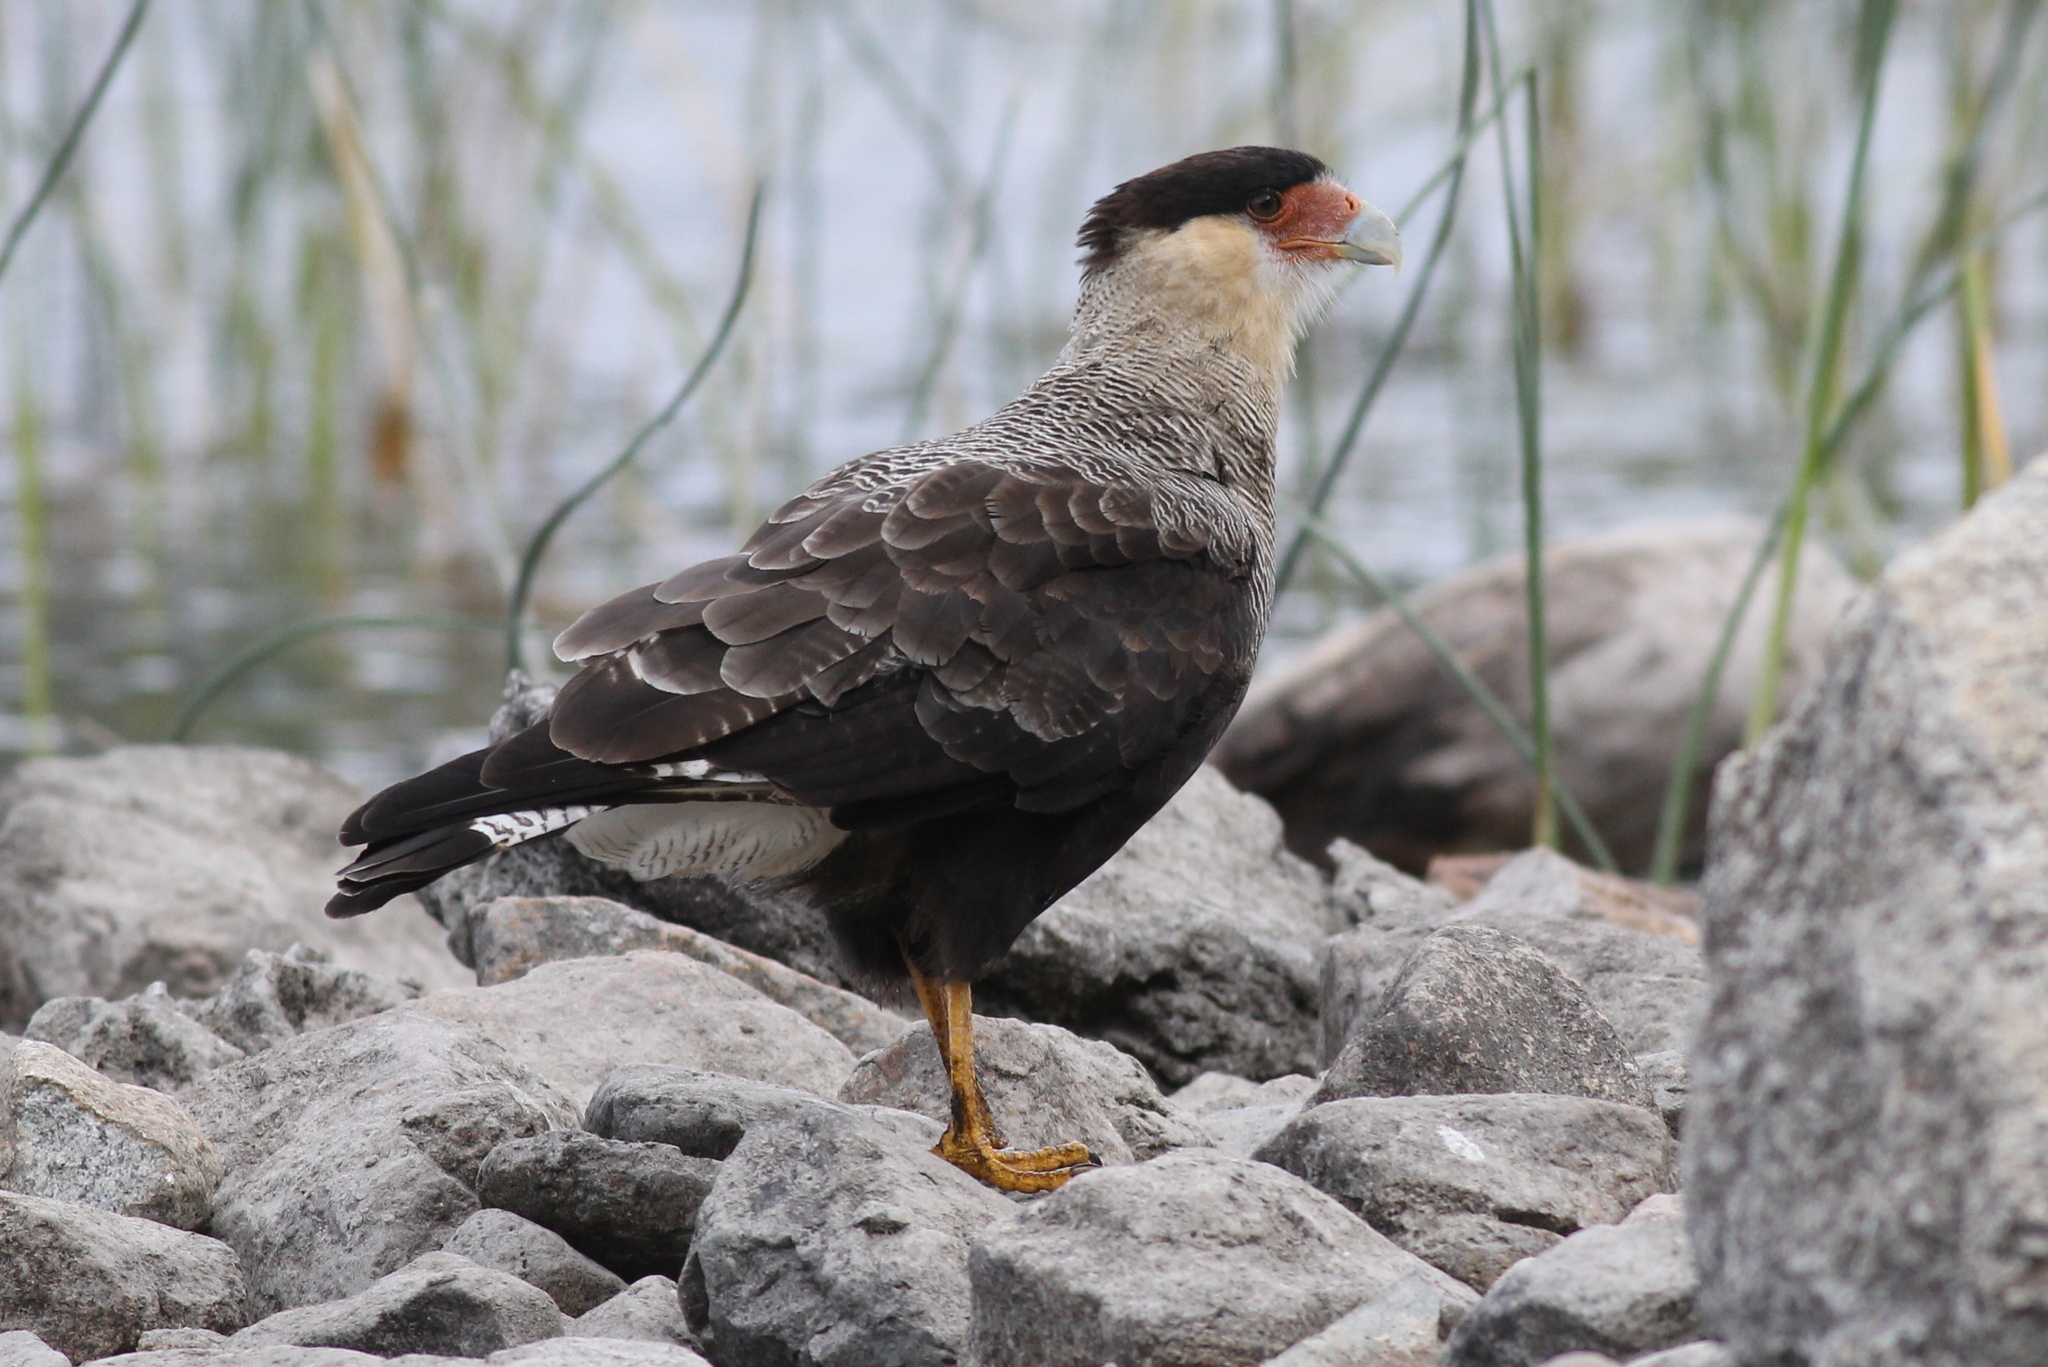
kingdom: Animalia
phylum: Chordata
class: Aves
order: Falconiformes
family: Falconidae
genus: Caracara
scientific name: Caracara plancus
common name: Southern caracara
